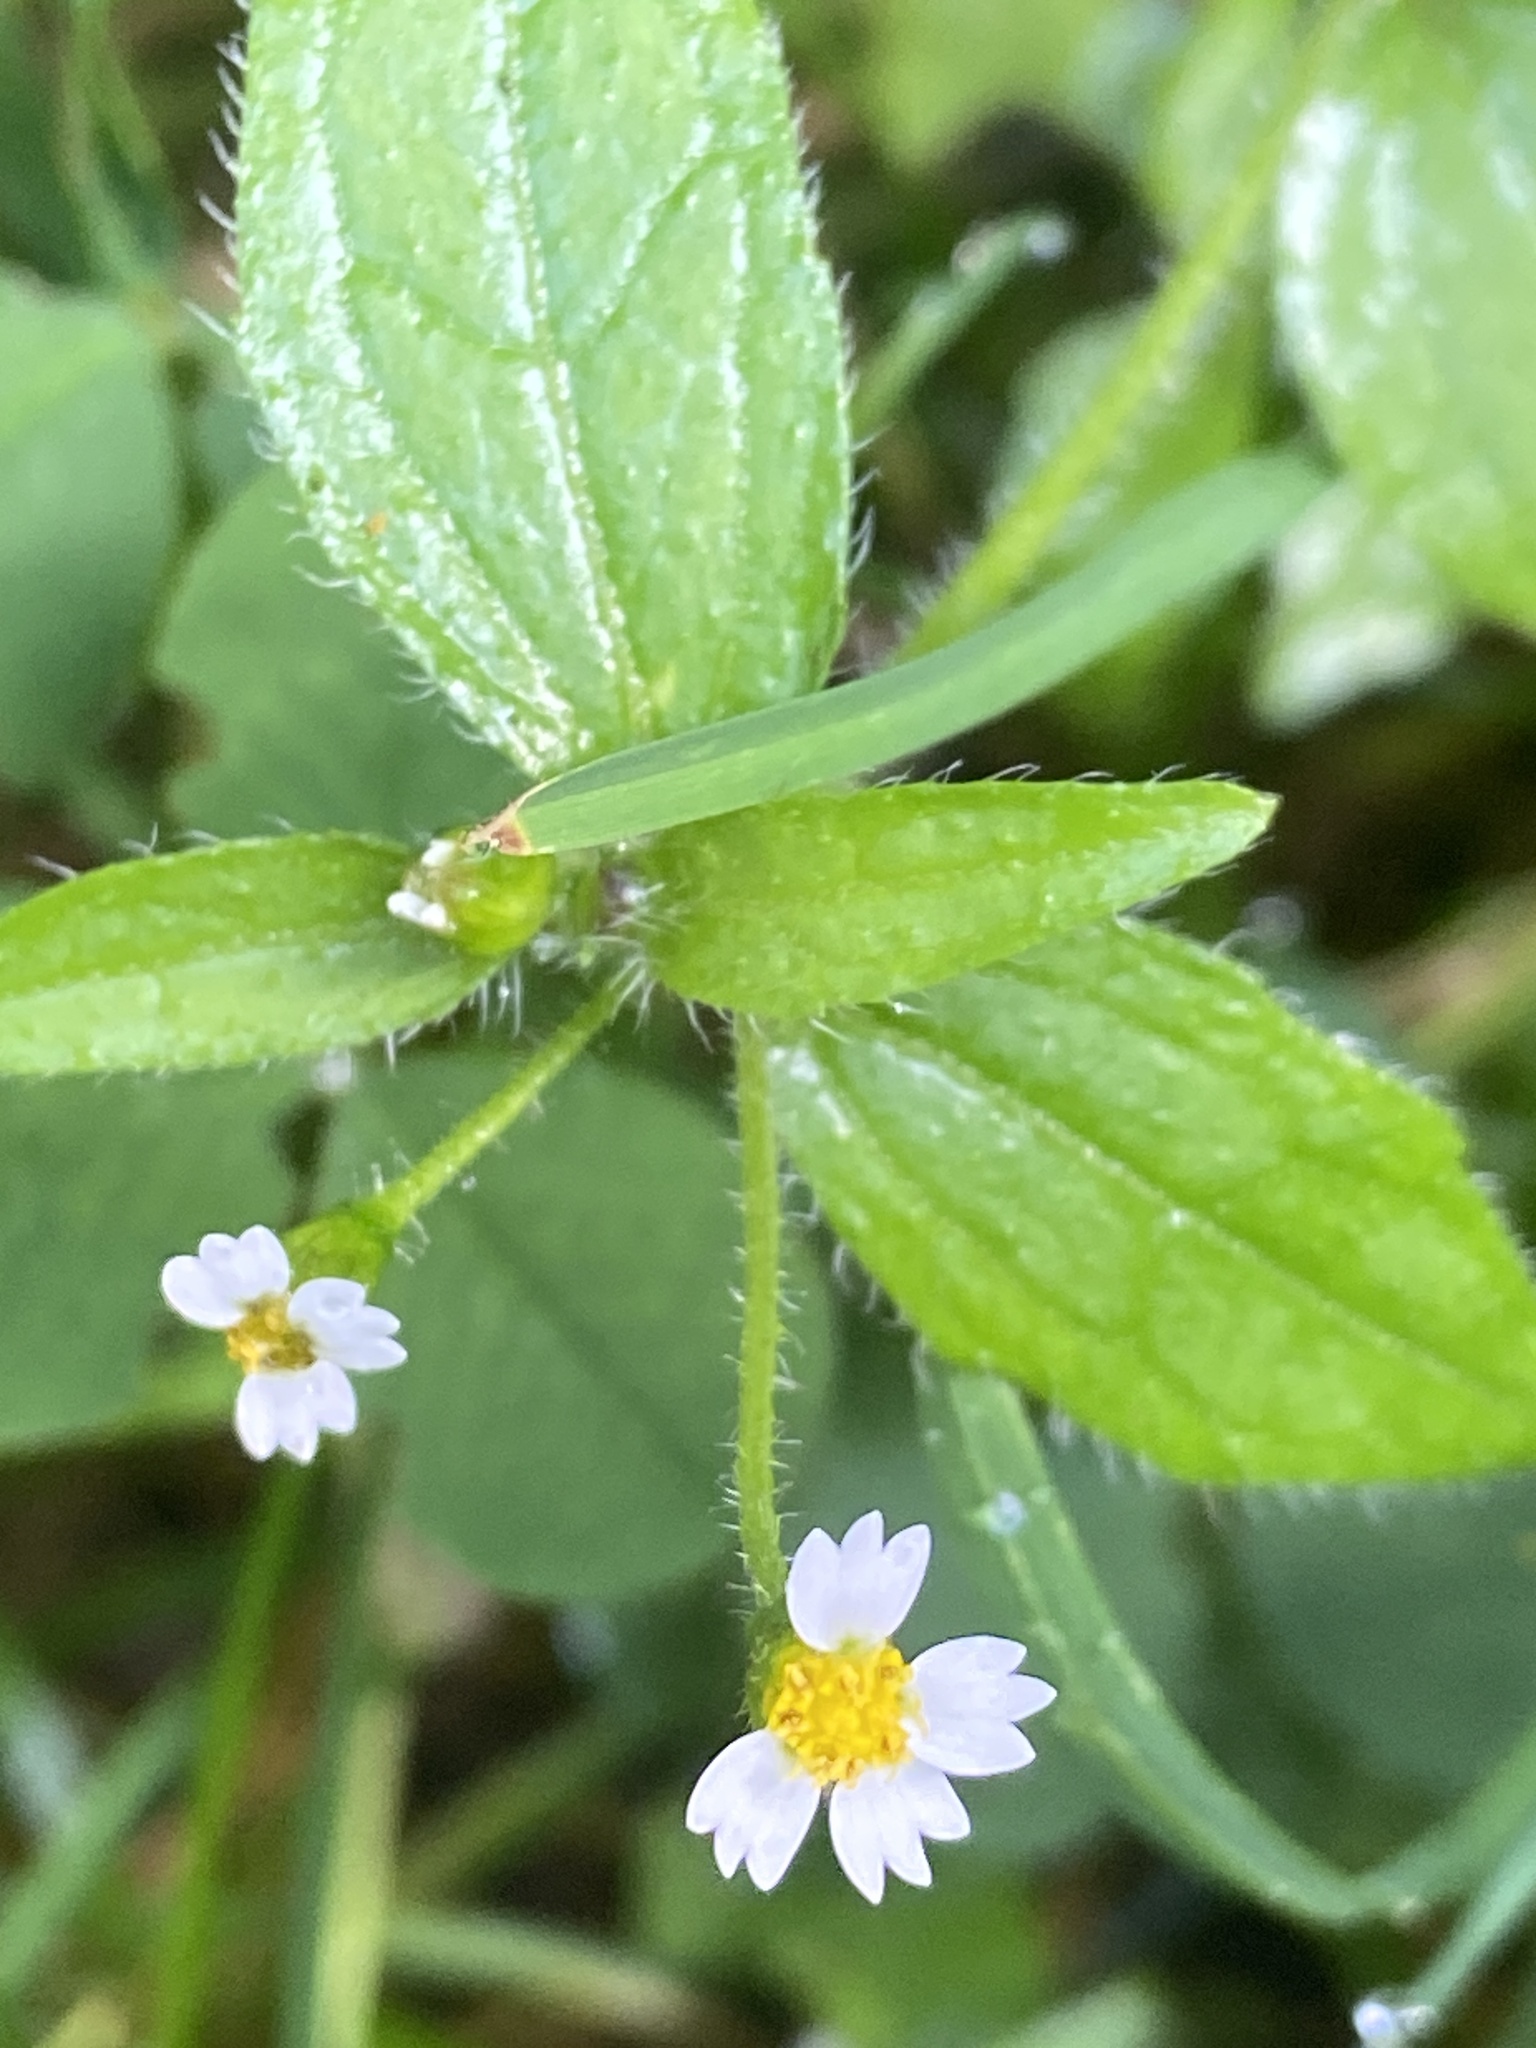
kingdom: Plantae
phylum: Tracheophyta
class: Magnoliopsida
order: Asterales
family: Asteraceae
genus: Galinsoga
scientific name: Galinsoga quadriradiata
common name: Shaggy soldier
